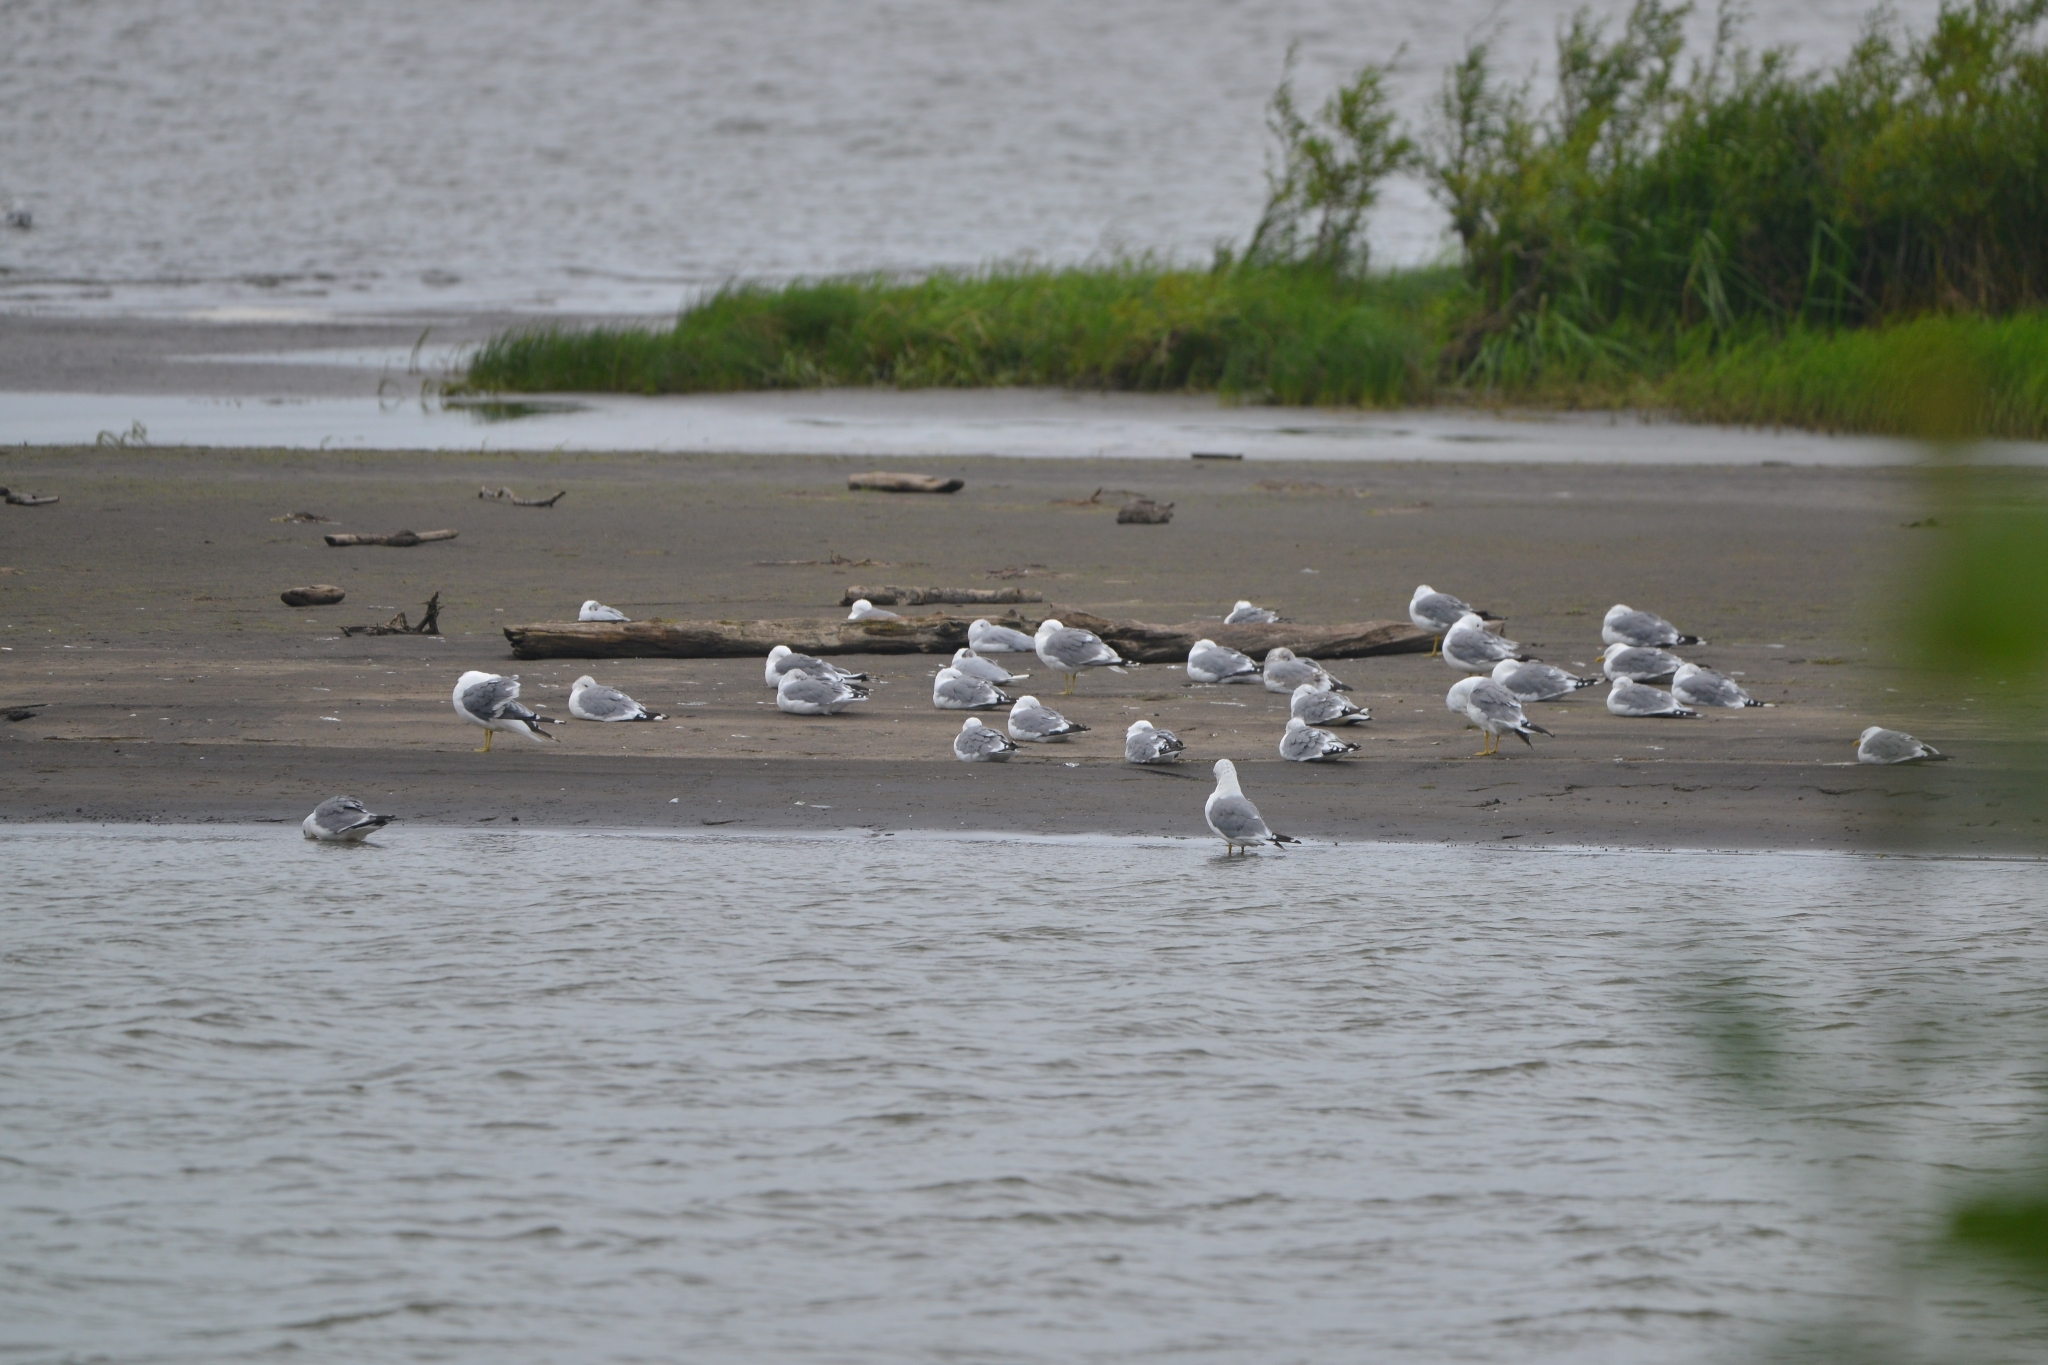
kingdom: Animalia
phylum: Chordata
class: Aves
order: Charadriiformes
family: Laridae
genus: Larus
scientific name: Larus canus
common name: Mew gull
